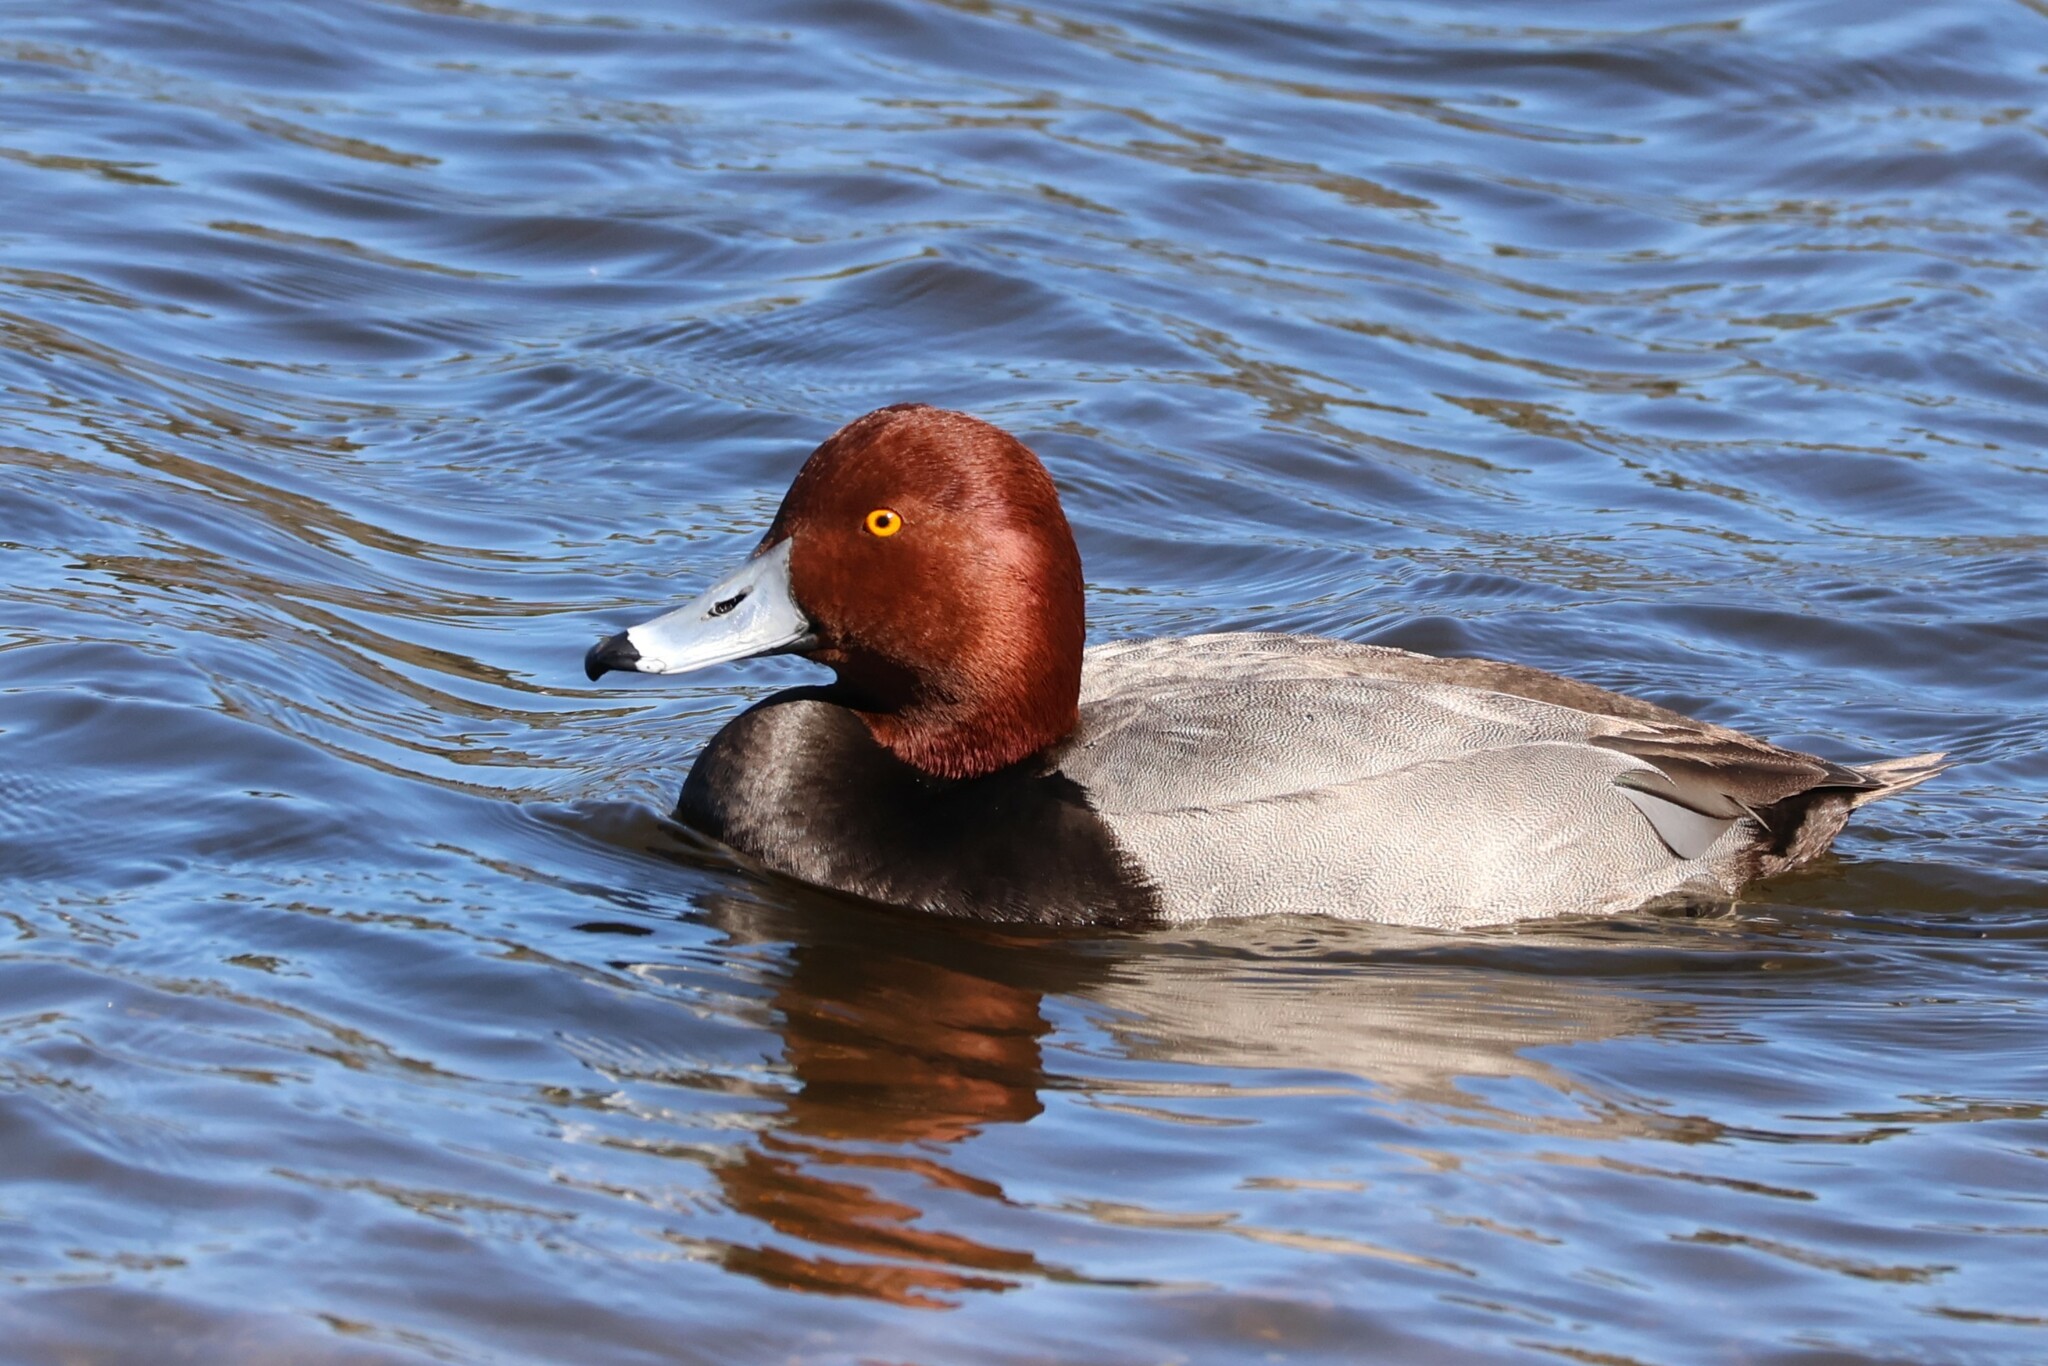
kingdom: Animalia
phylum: Chordata
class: Aves
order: Anseriformes
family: Anatidae
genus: Aythya
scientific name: Aythya americana
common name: Redhead
